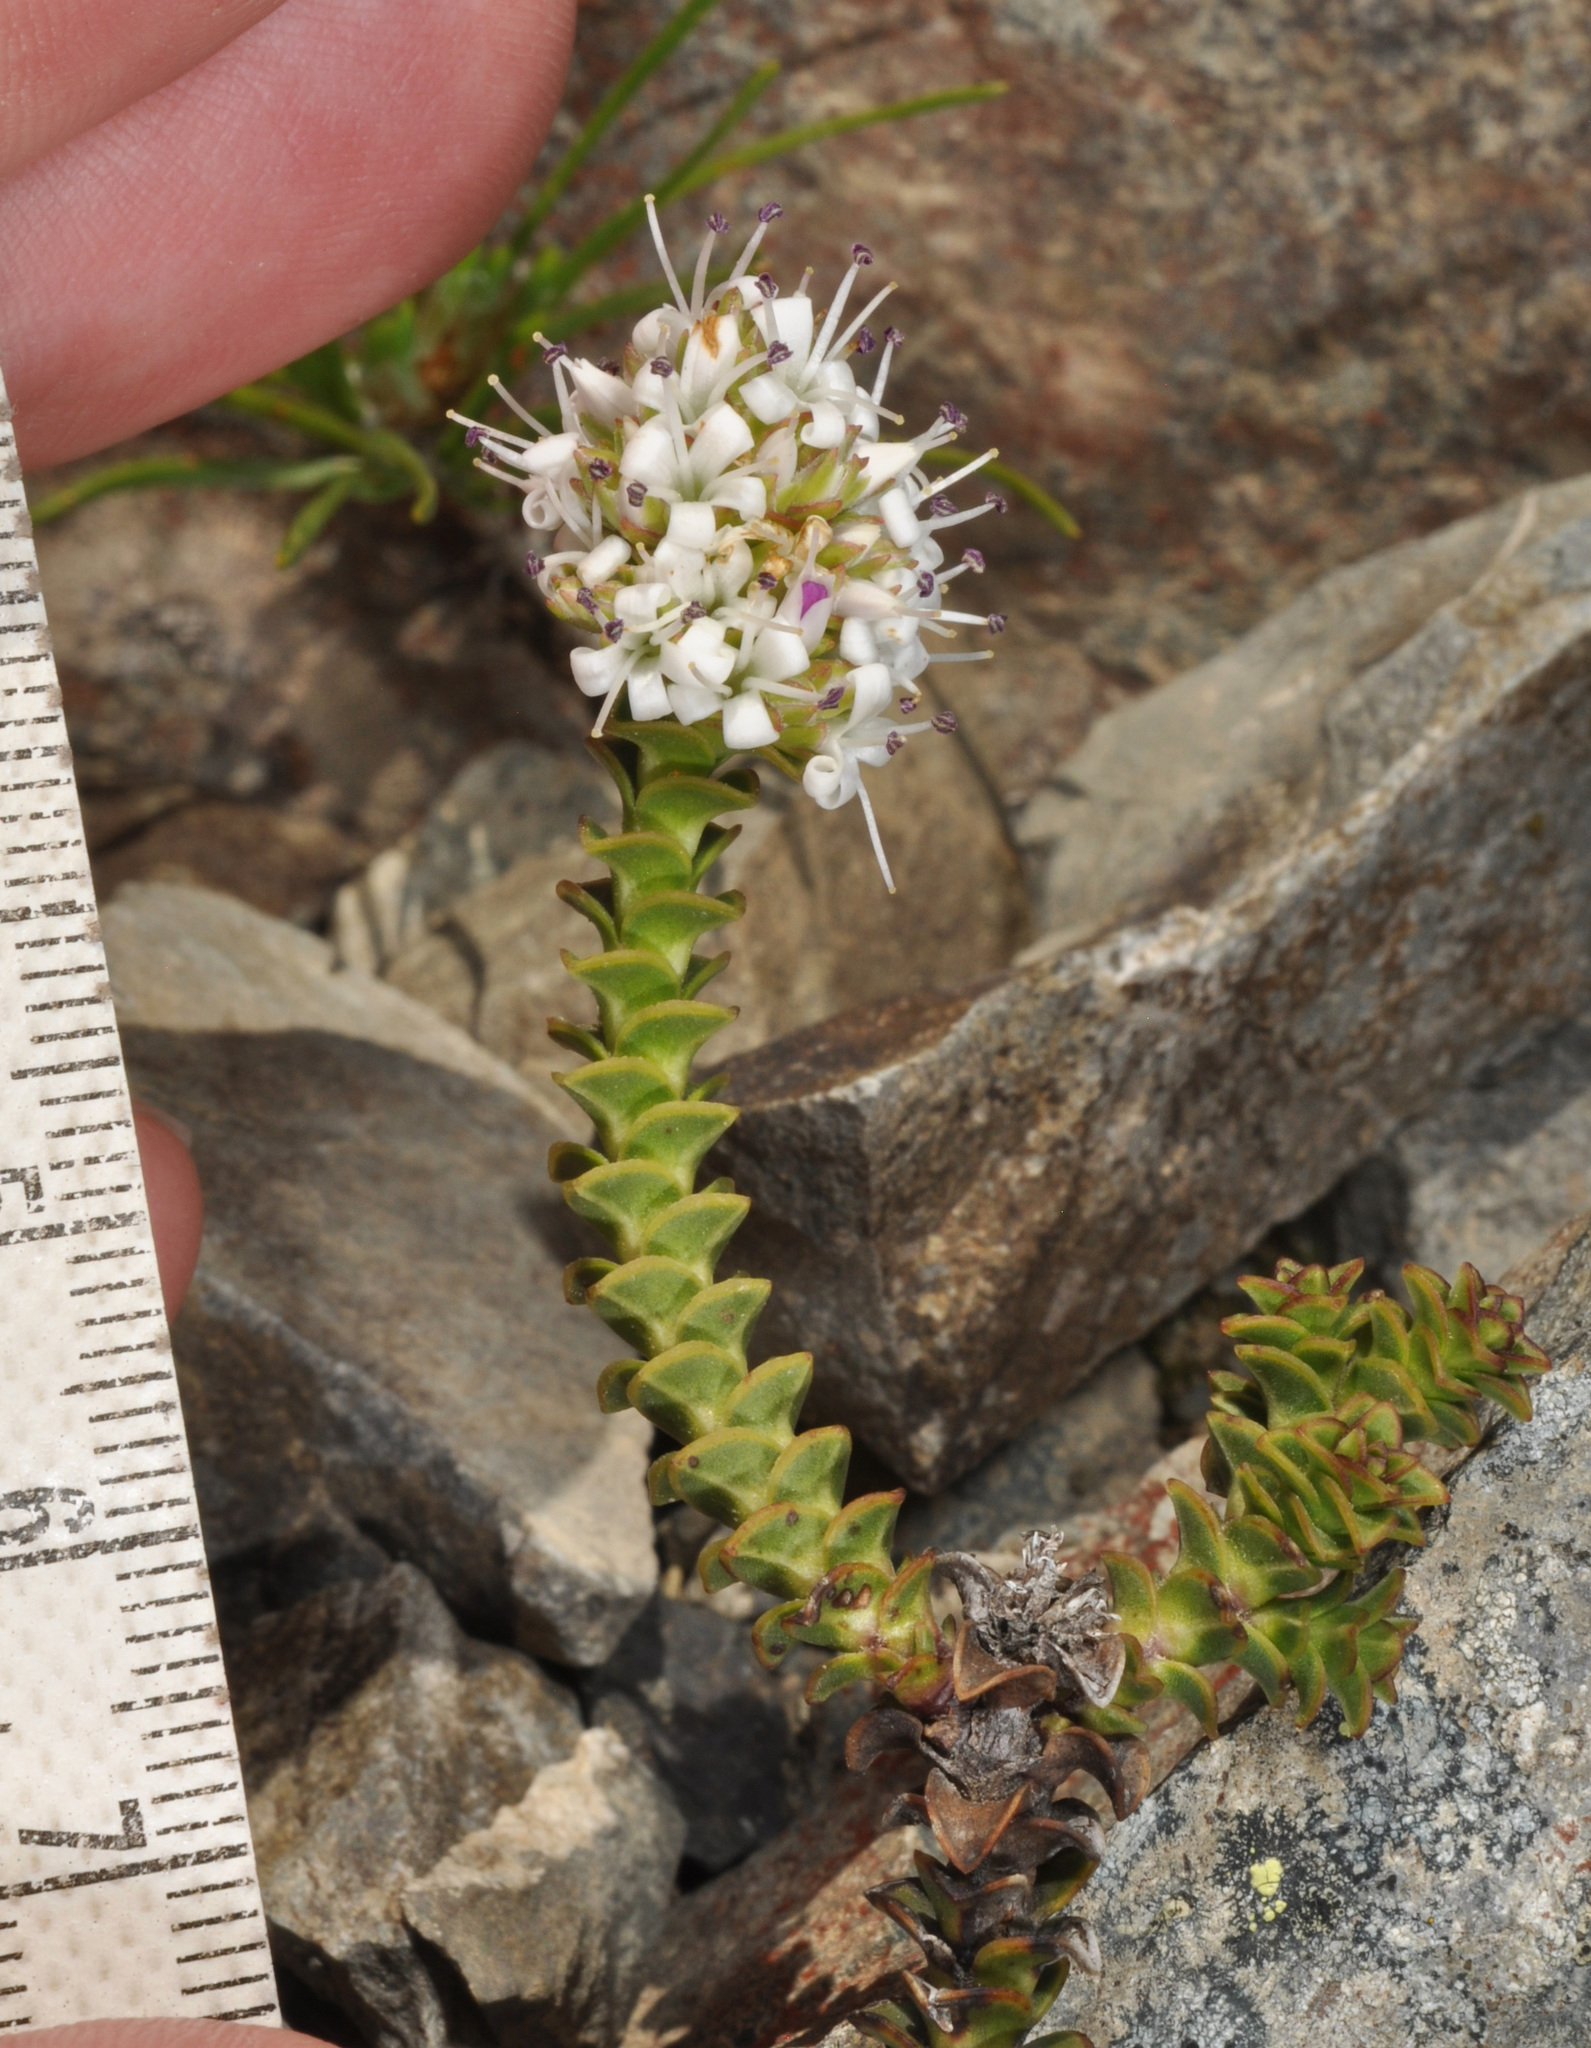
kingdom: Plantae
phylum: Tracheophyta
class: Magnoliopsida
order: Lamiales
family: Plantaginaceae
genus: Veronica
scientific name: Veronica epacridea
